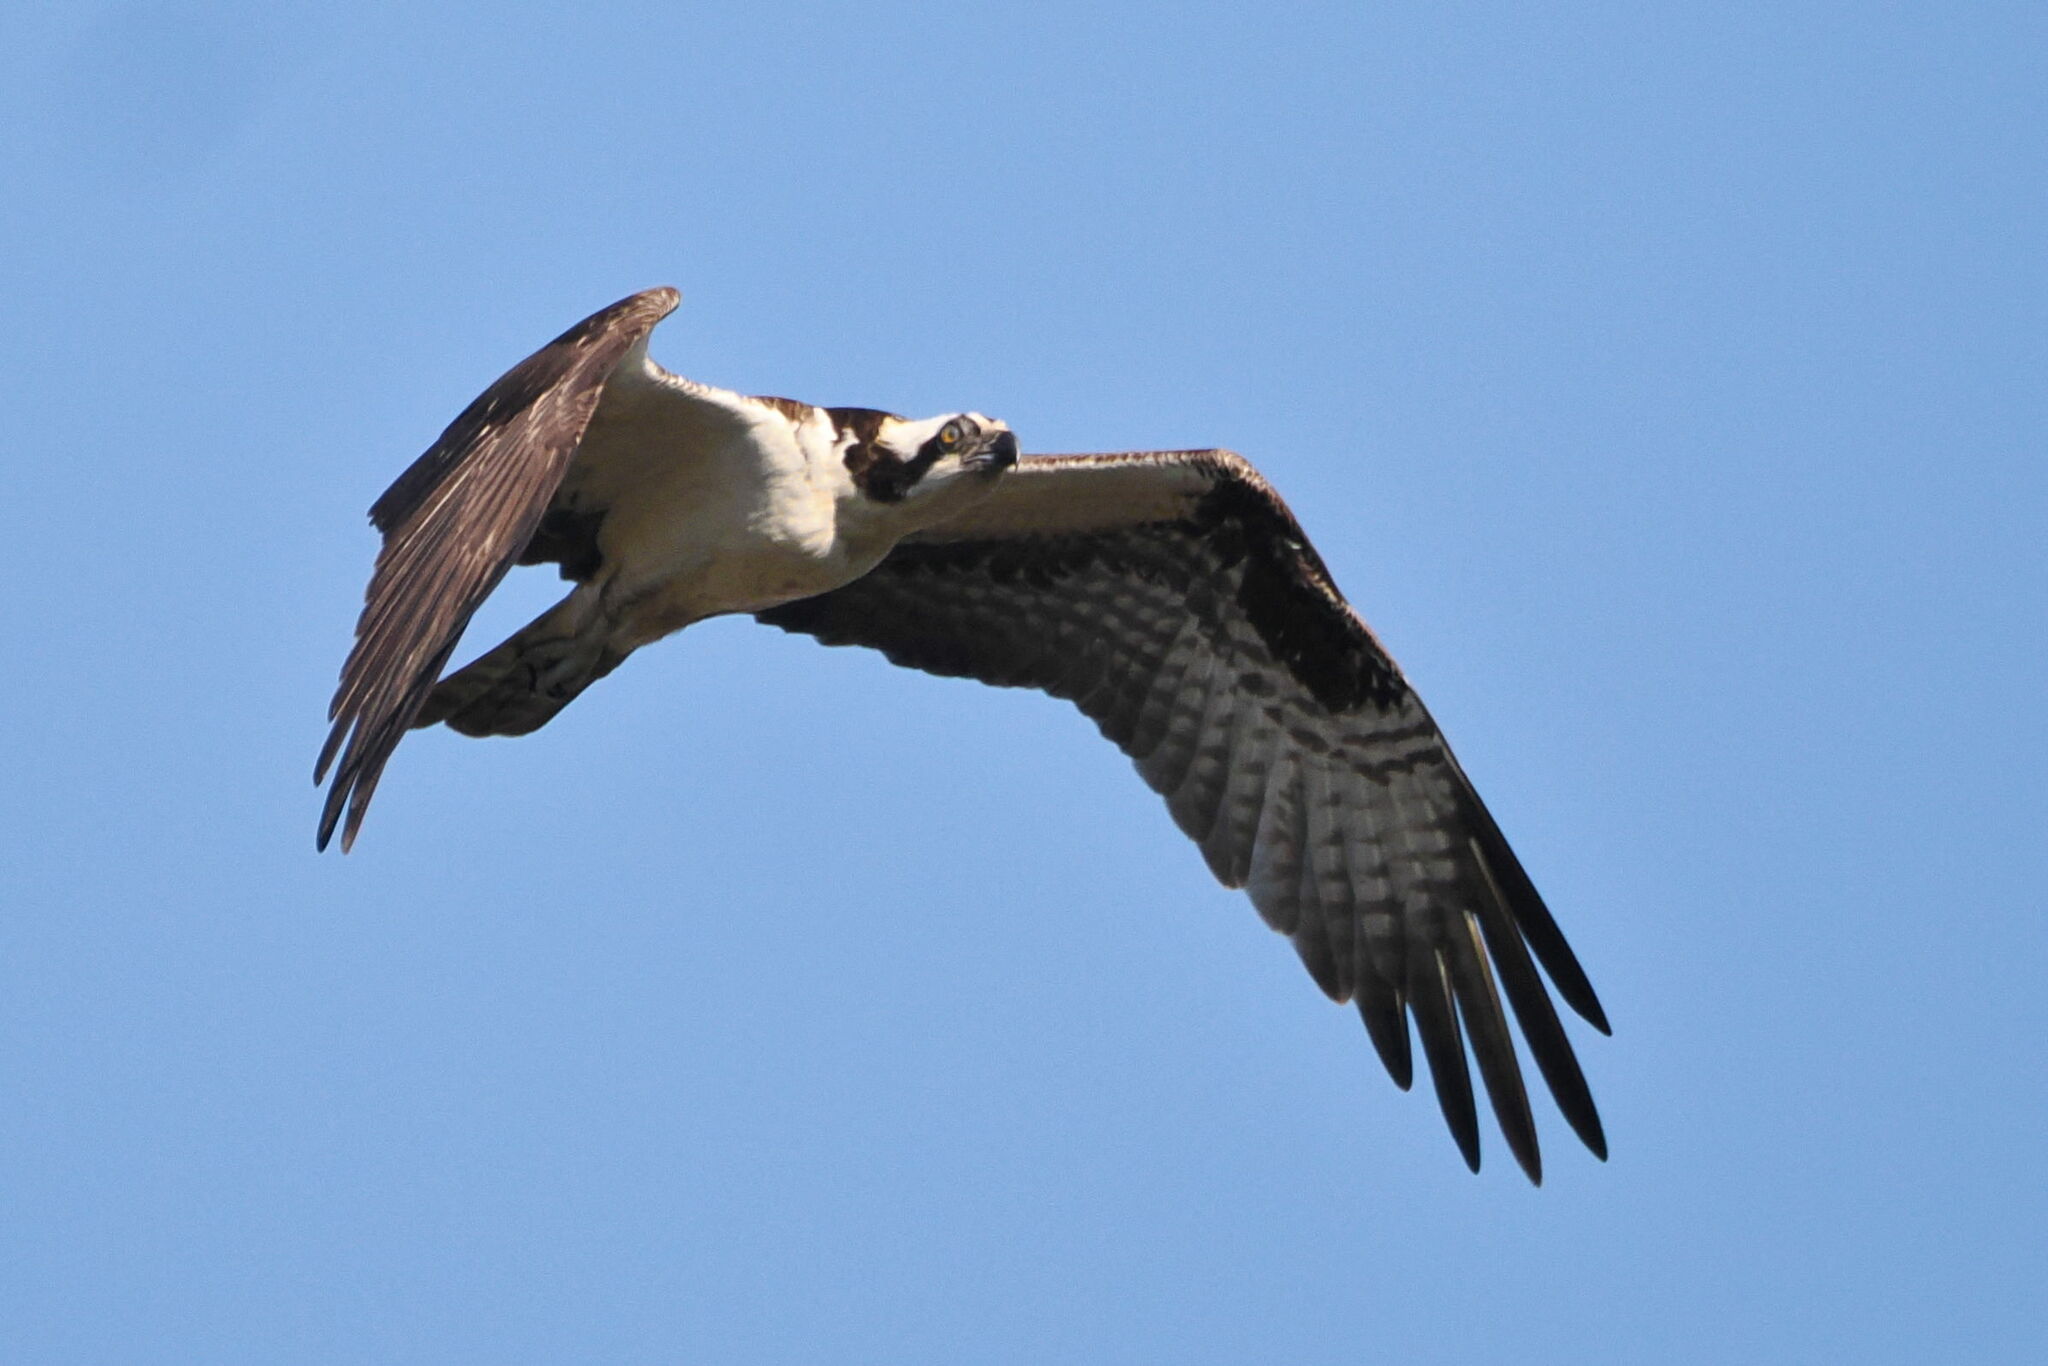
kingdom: Animalia
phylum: Chordata
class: Aves
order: Accipitriformes
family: Pandionidae
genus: Pandion
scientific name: Pandion haliaetus
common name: Osprey
